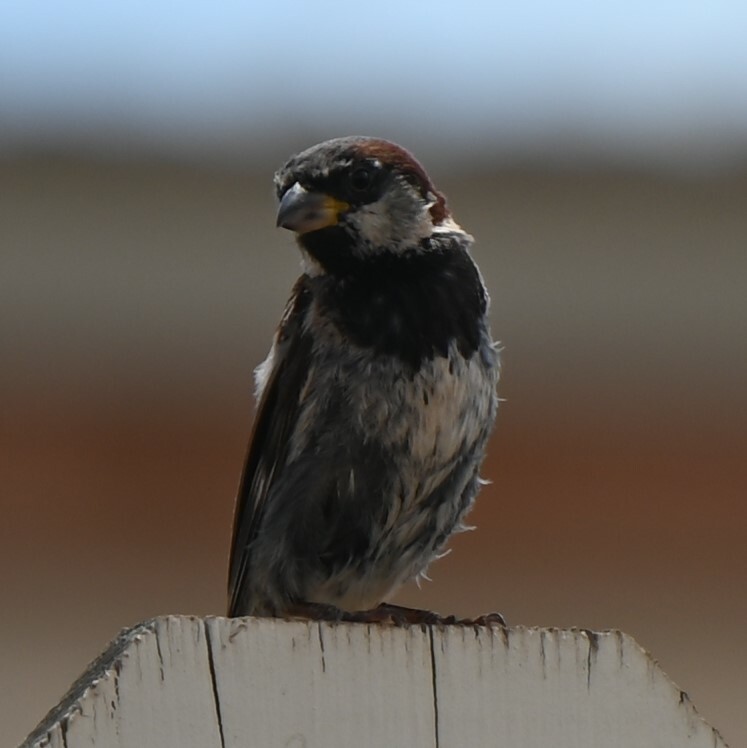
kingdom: Animalia
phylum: Chordata
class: Aves
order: Passeriformes
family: Passeridae
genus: Passer
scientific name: Passer domesticus
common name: House sparrow
